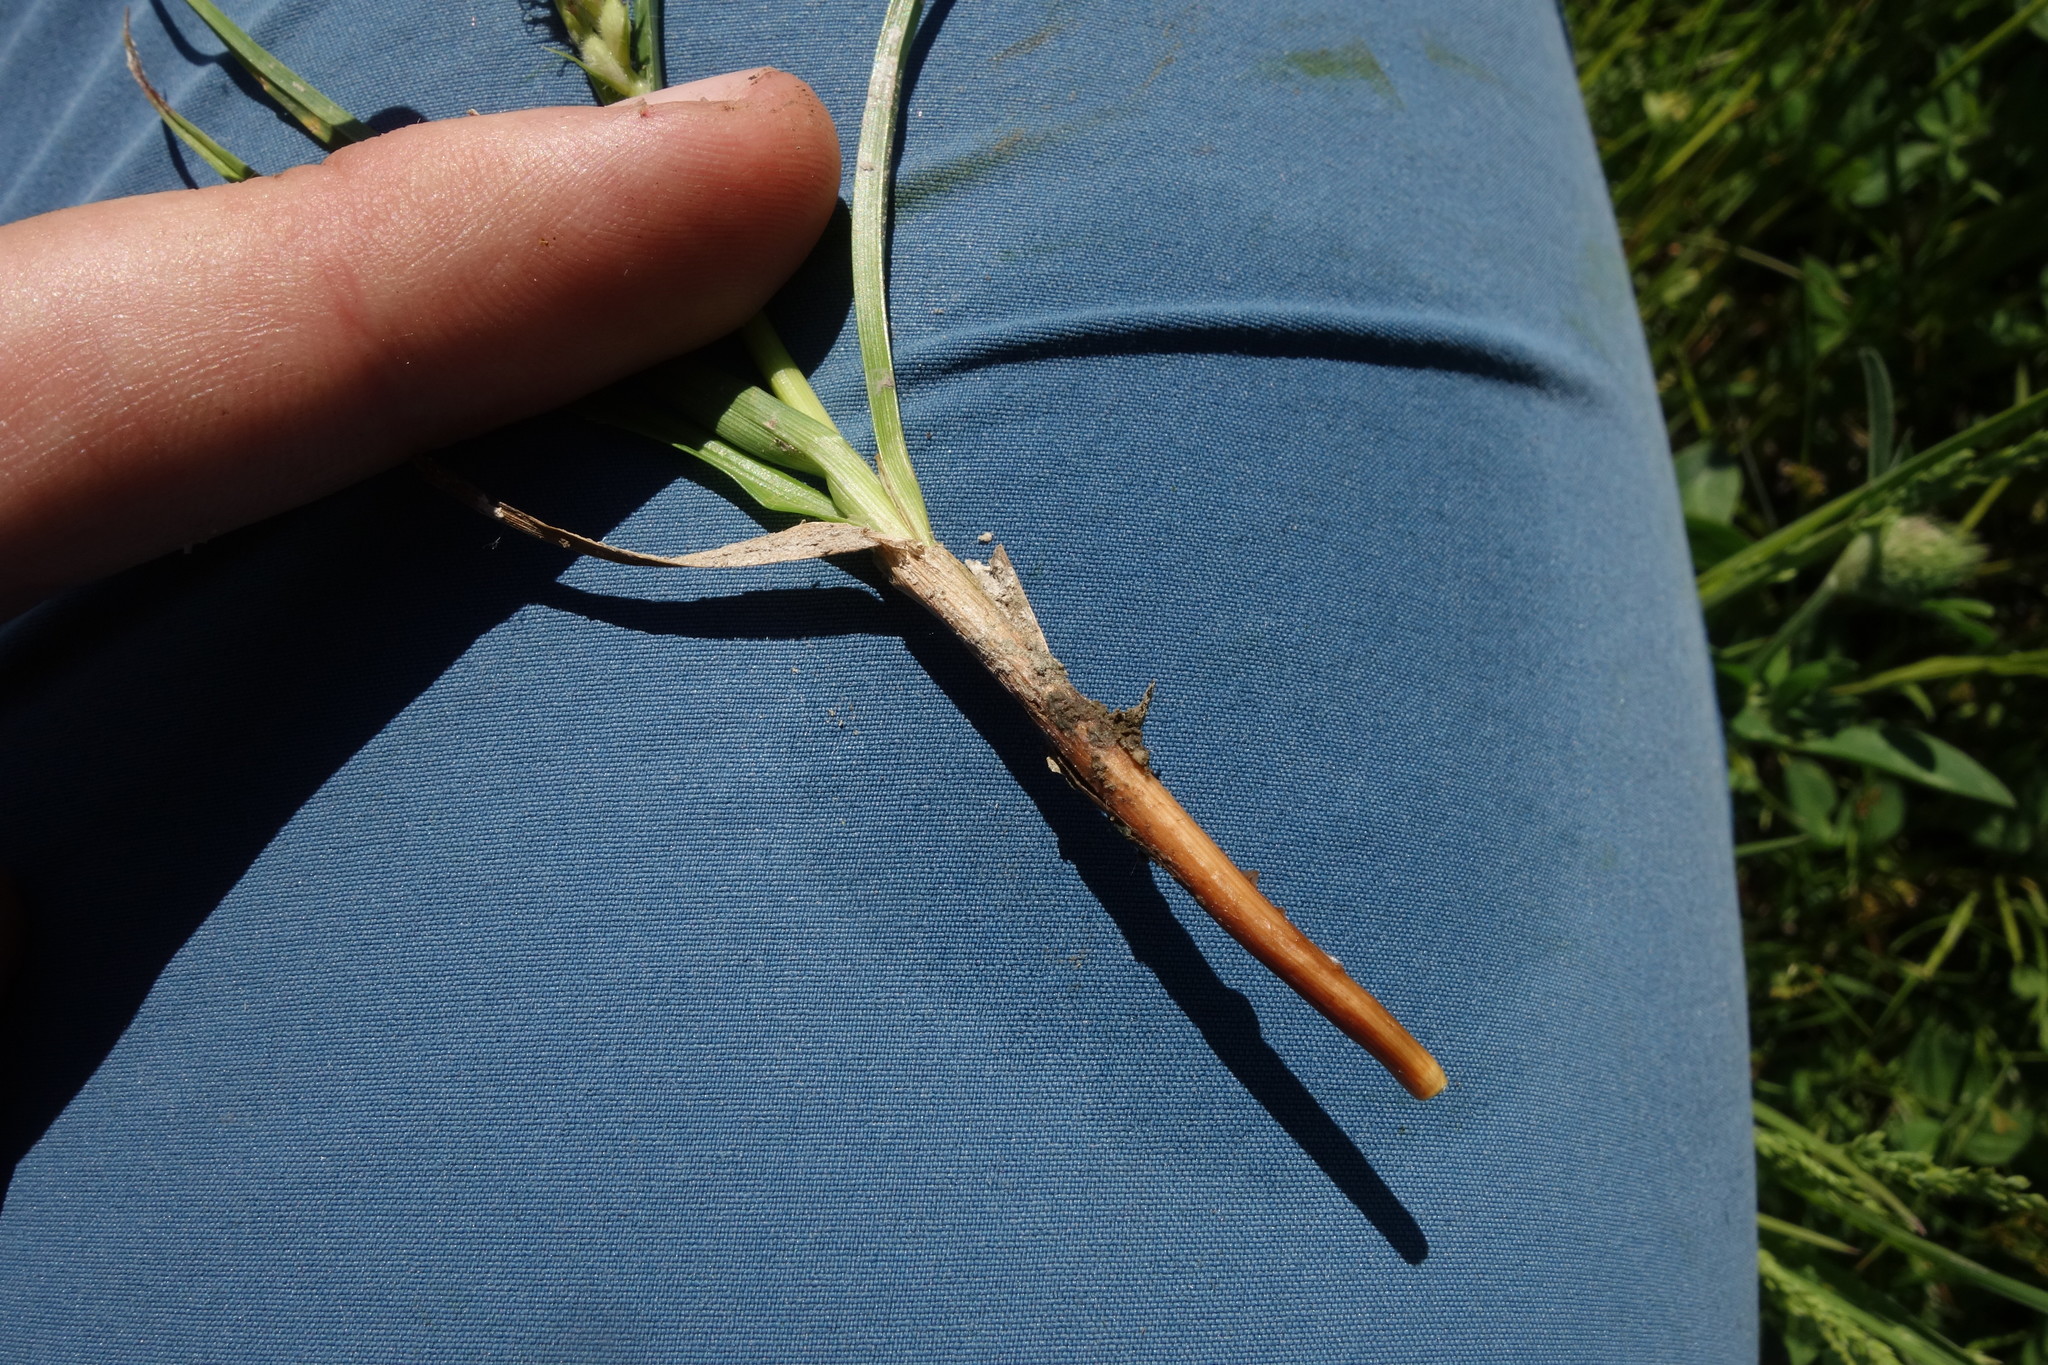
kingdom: Plantae
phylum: Tracheophyta
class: Liliopsida
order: Poales
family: Cyperaceae
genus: Carex
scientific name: Carex hirta
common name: Hairy sedge
